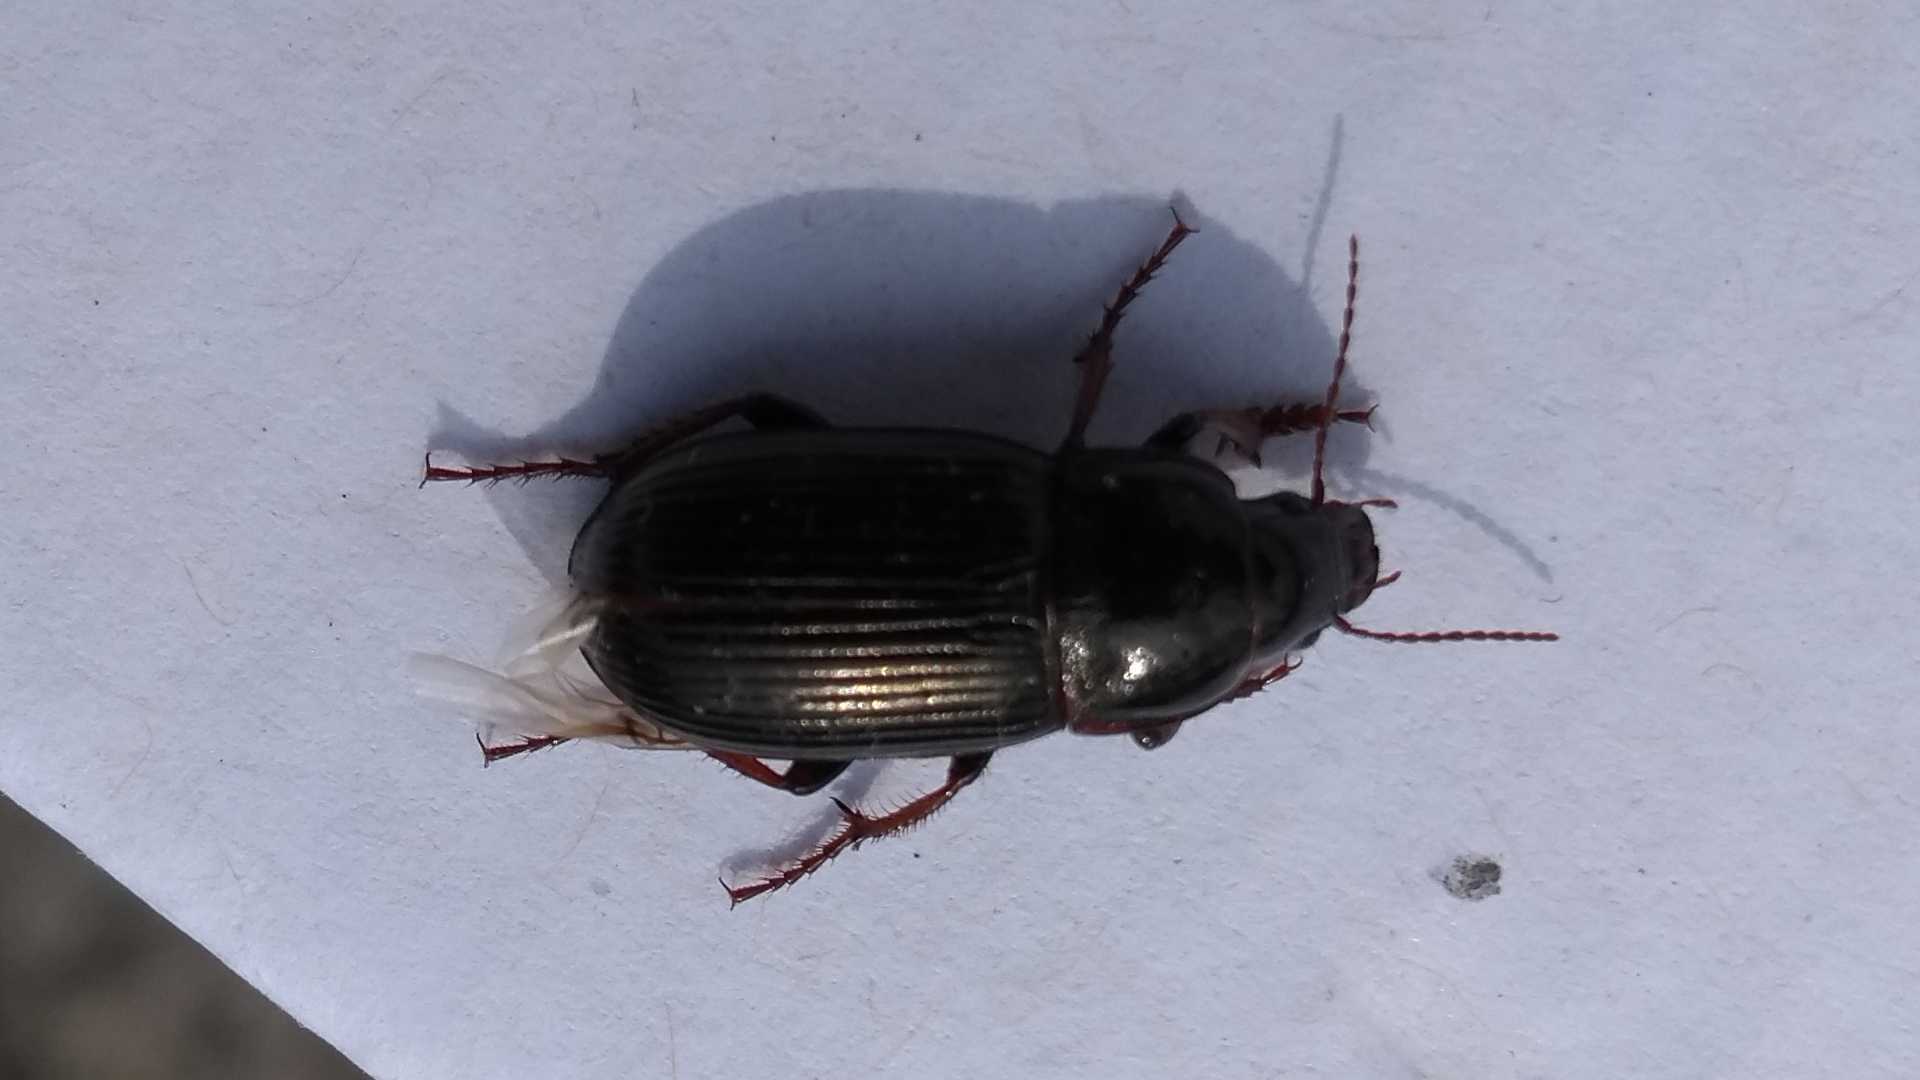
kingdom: Animalia
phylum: Arthropoda
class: Insecta
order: Coleoptera
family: Carabidae
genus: Zabrus
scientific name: Zabrus tenebrioides
